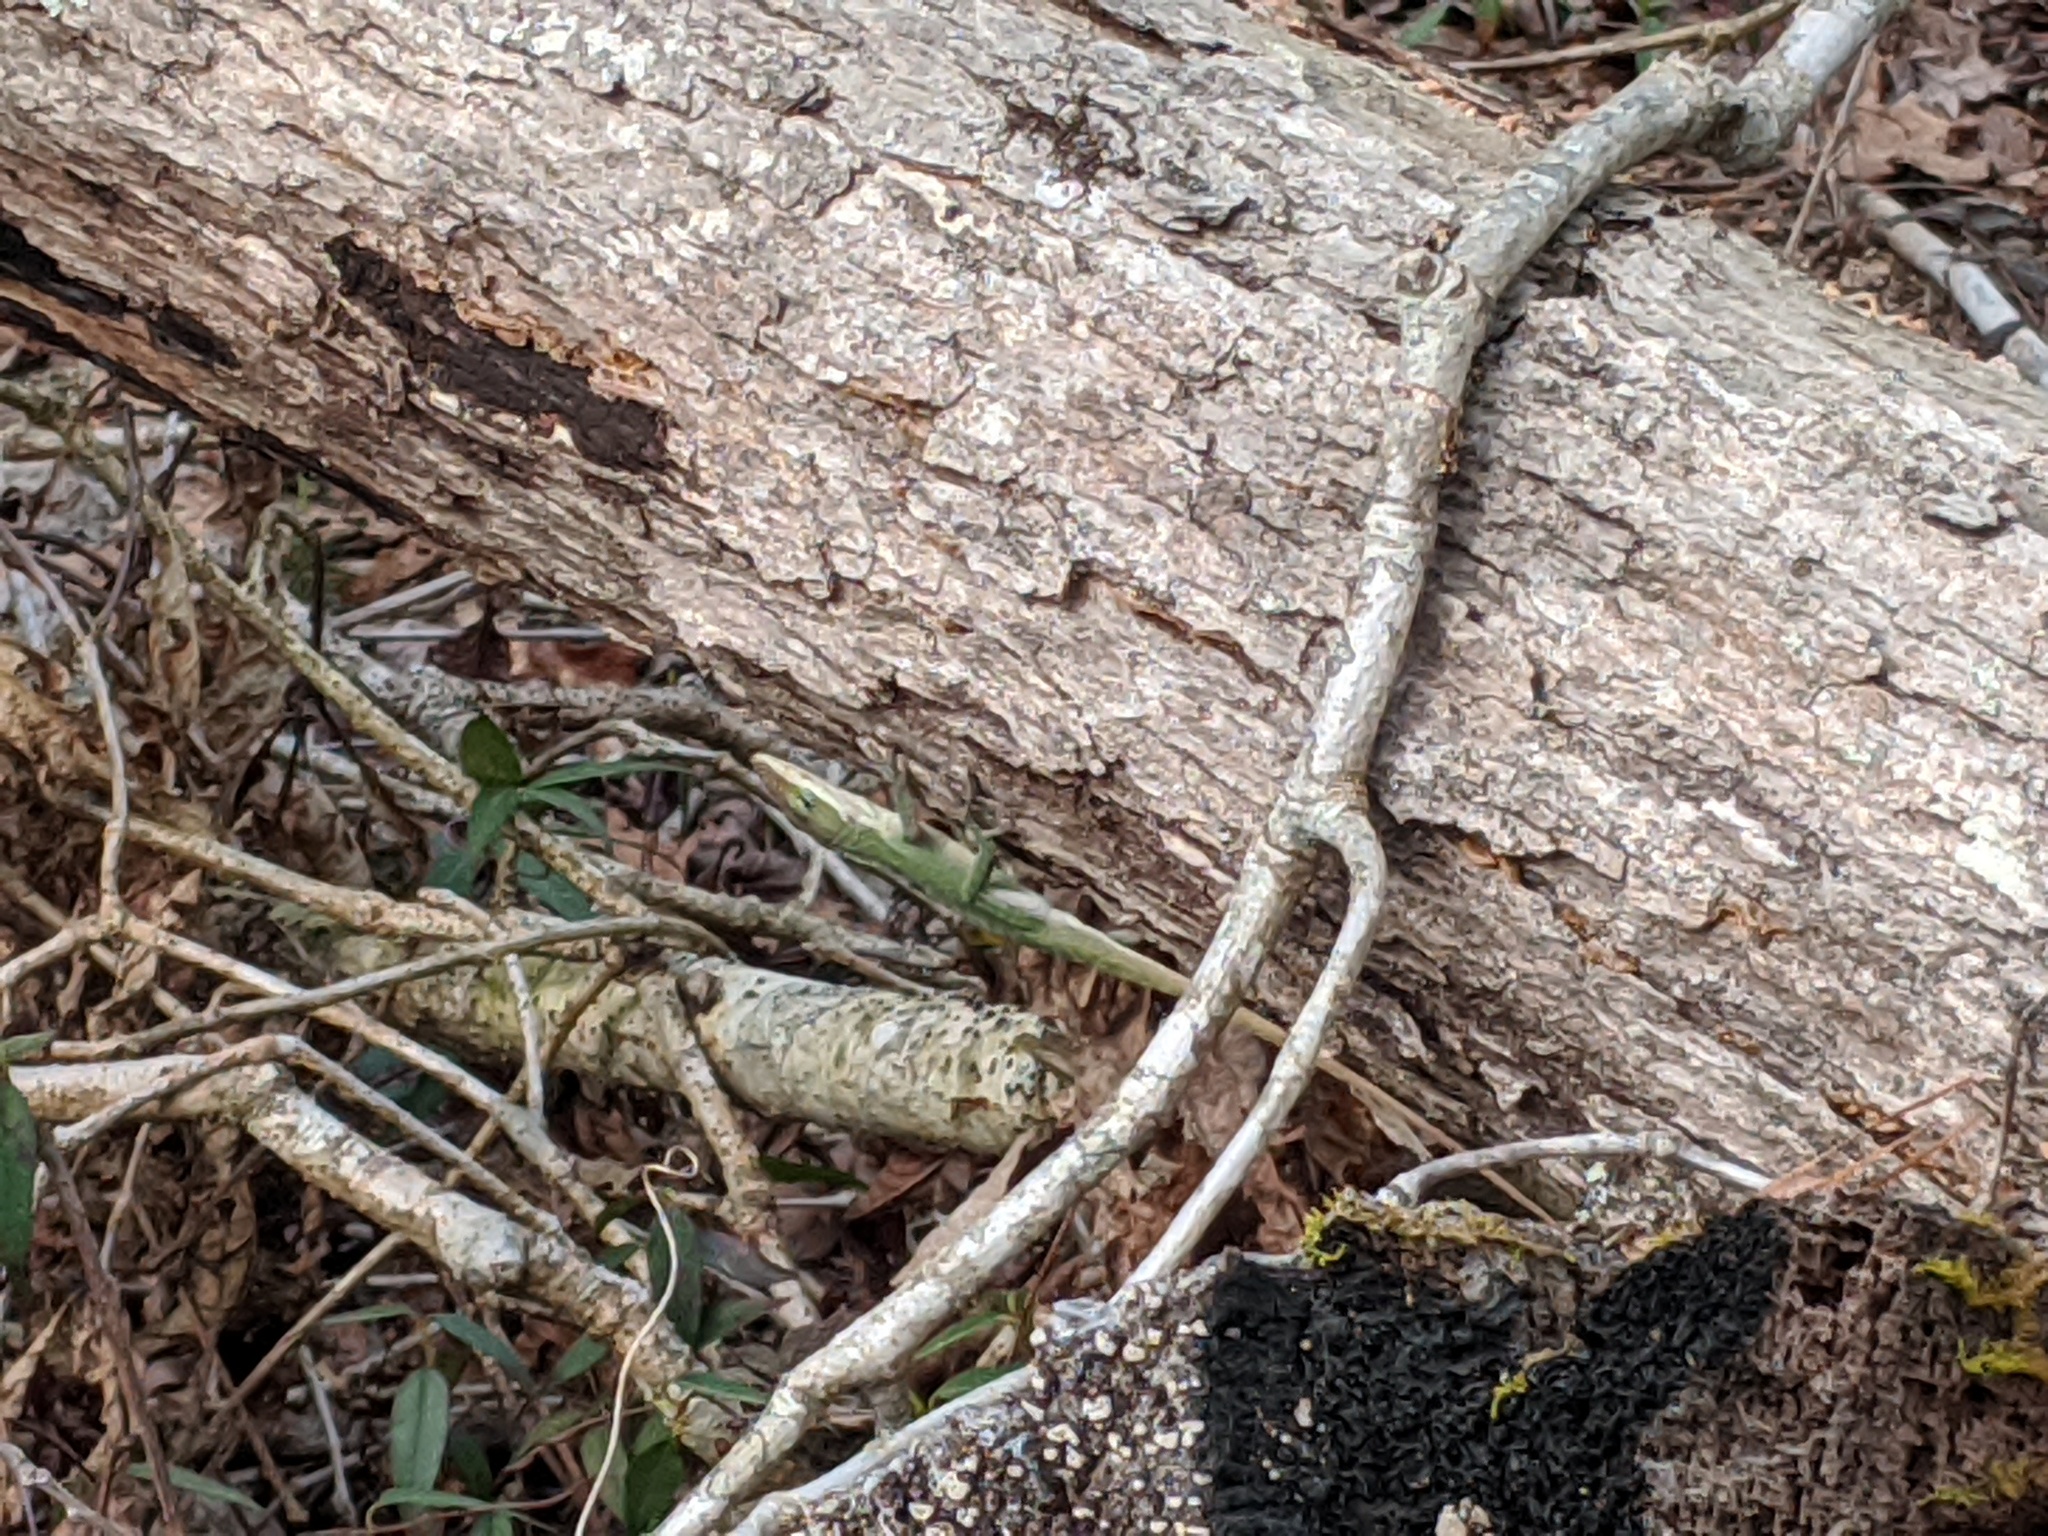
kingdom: Animalia
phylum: Chordata
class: Squamata
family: Dactyloidae
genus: Anolis
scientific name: Anolis carolinensis
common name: Green anole
